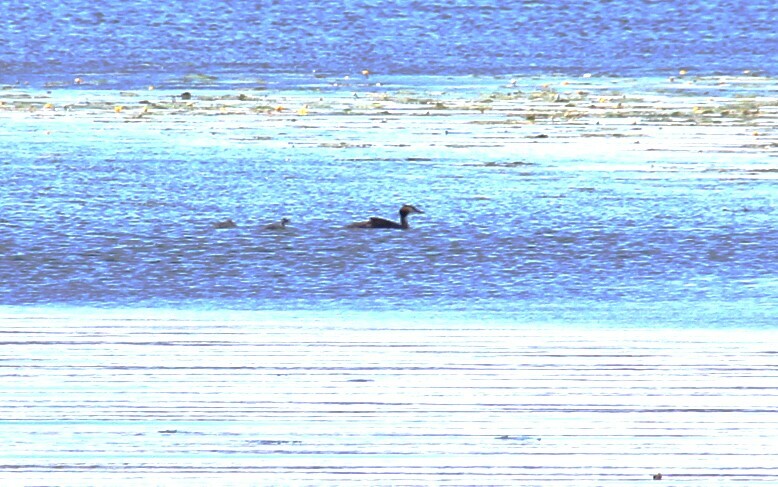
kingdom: Animalia
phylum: Chordata
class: Aves
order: Podicipediformes
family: Podicipedidae
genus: Podiceps
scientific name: Podiceps cristatus
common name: Great crested grebe
